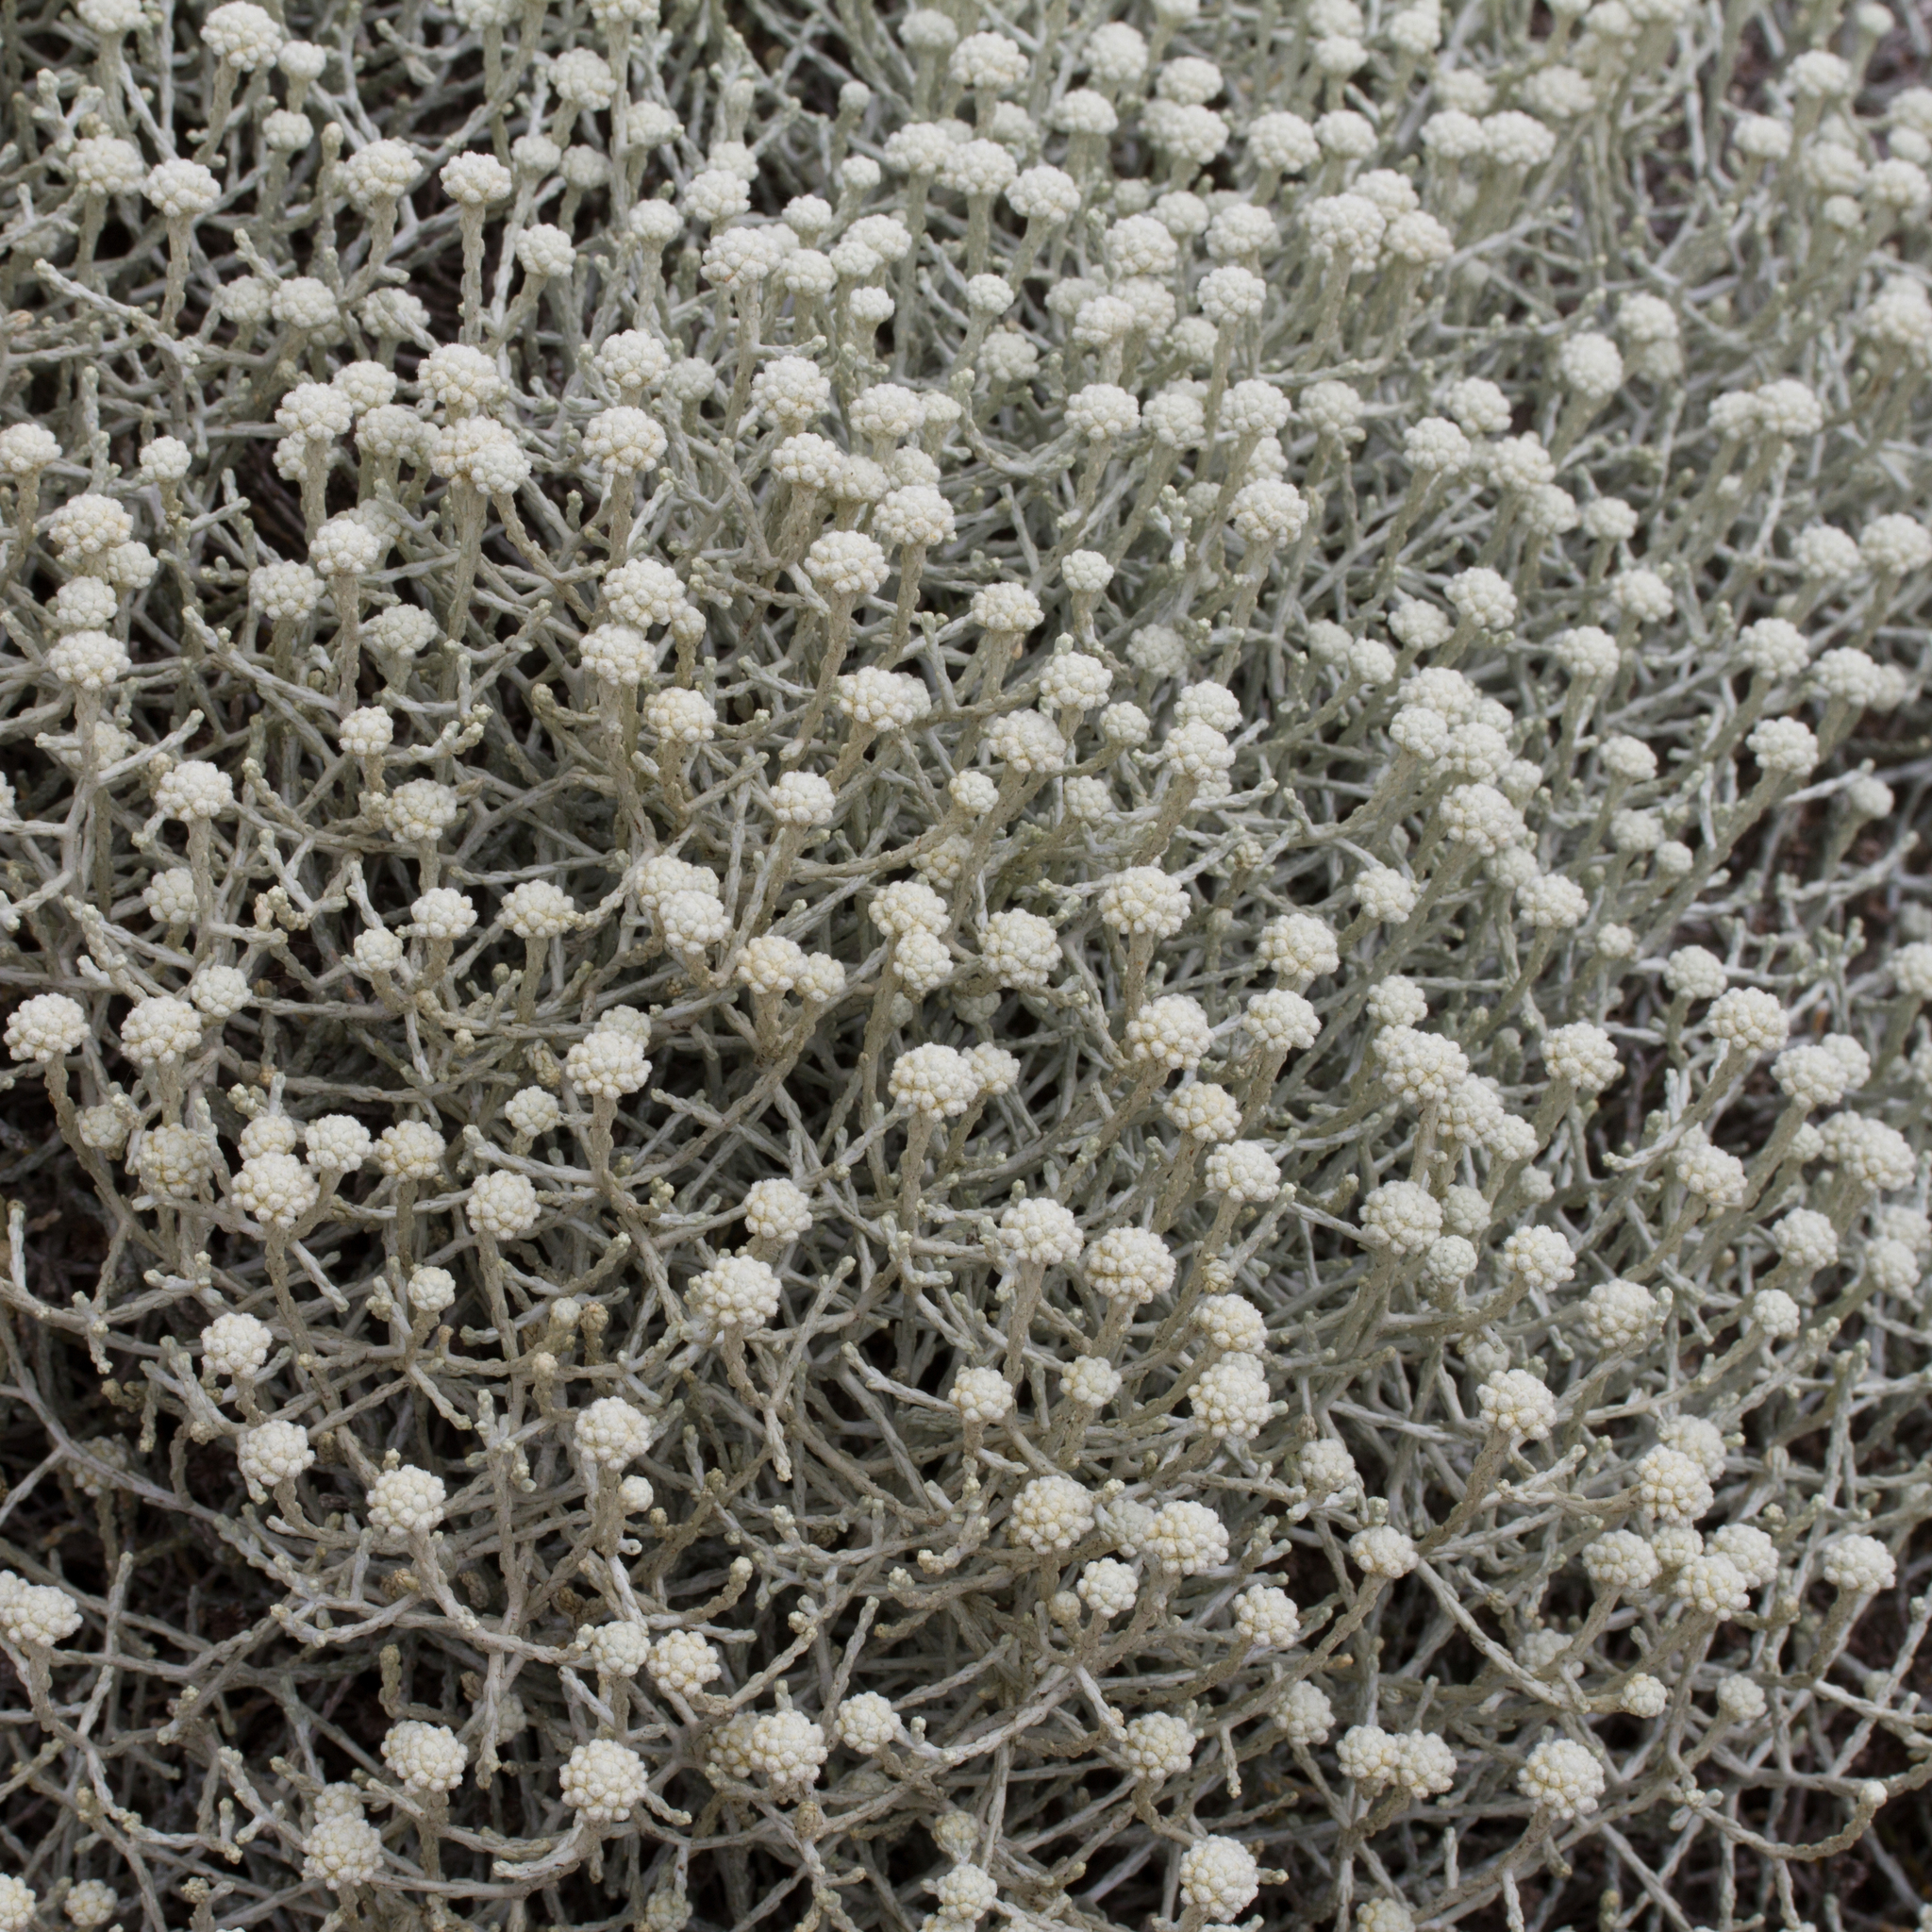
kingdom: Plantae
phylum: Tracheophyta
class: Magnoliopsida
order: Asterales
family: Asteraceae
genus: Calocephalus
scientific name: Calocephalus brownii
